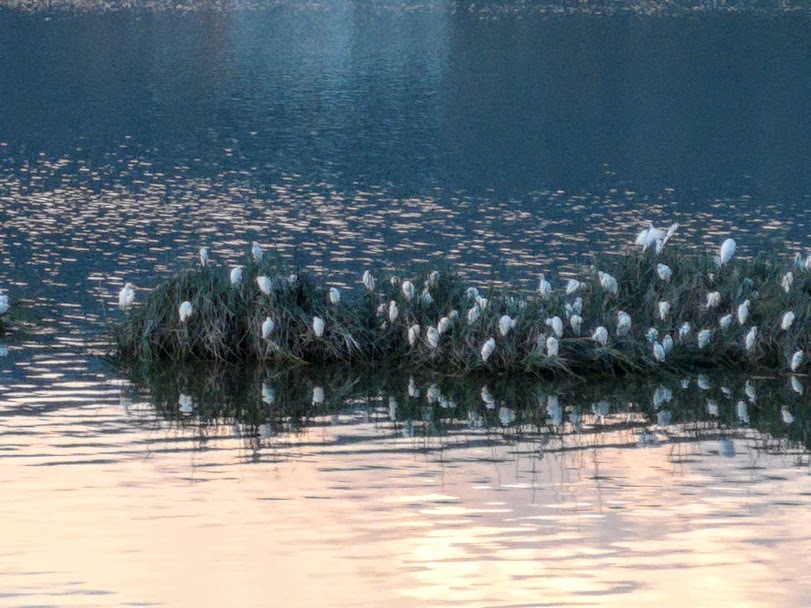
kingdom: Animalia
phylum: Chordata
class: Aves
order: Pelecaniformes
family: Ardeidae
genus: Bubulcus
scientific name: Bubulcus ibis
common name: Cattle egret
